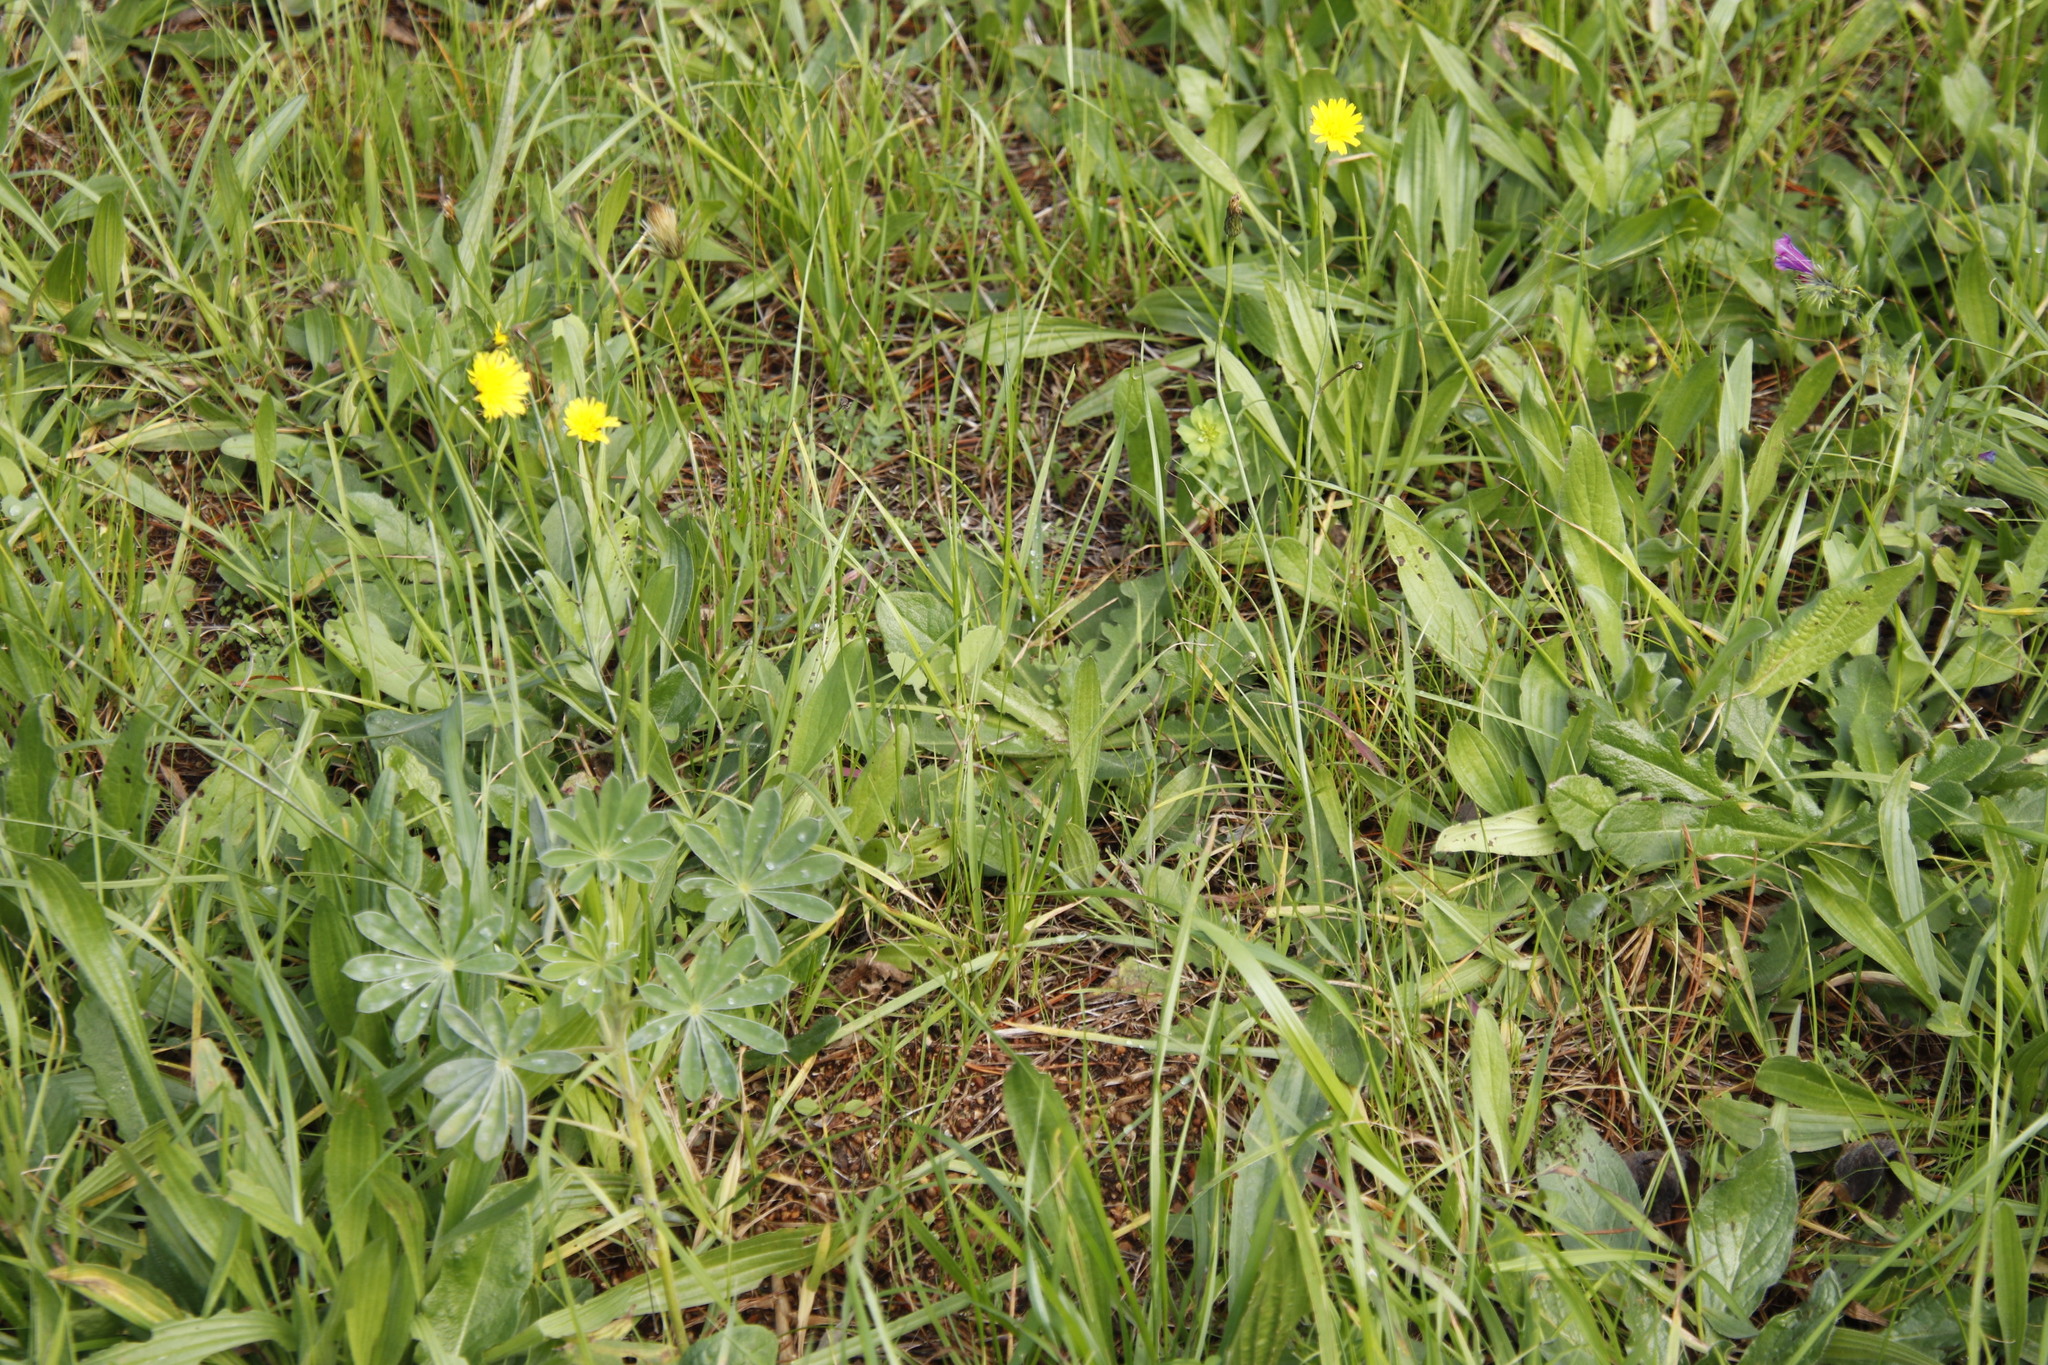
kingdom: Plantae
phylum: Tracheophyta
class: Magnoliopsida
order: Asterales
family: Asteraceae
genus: Hypochaeris
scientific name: Hypochaeris radicata
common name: Flatweed
